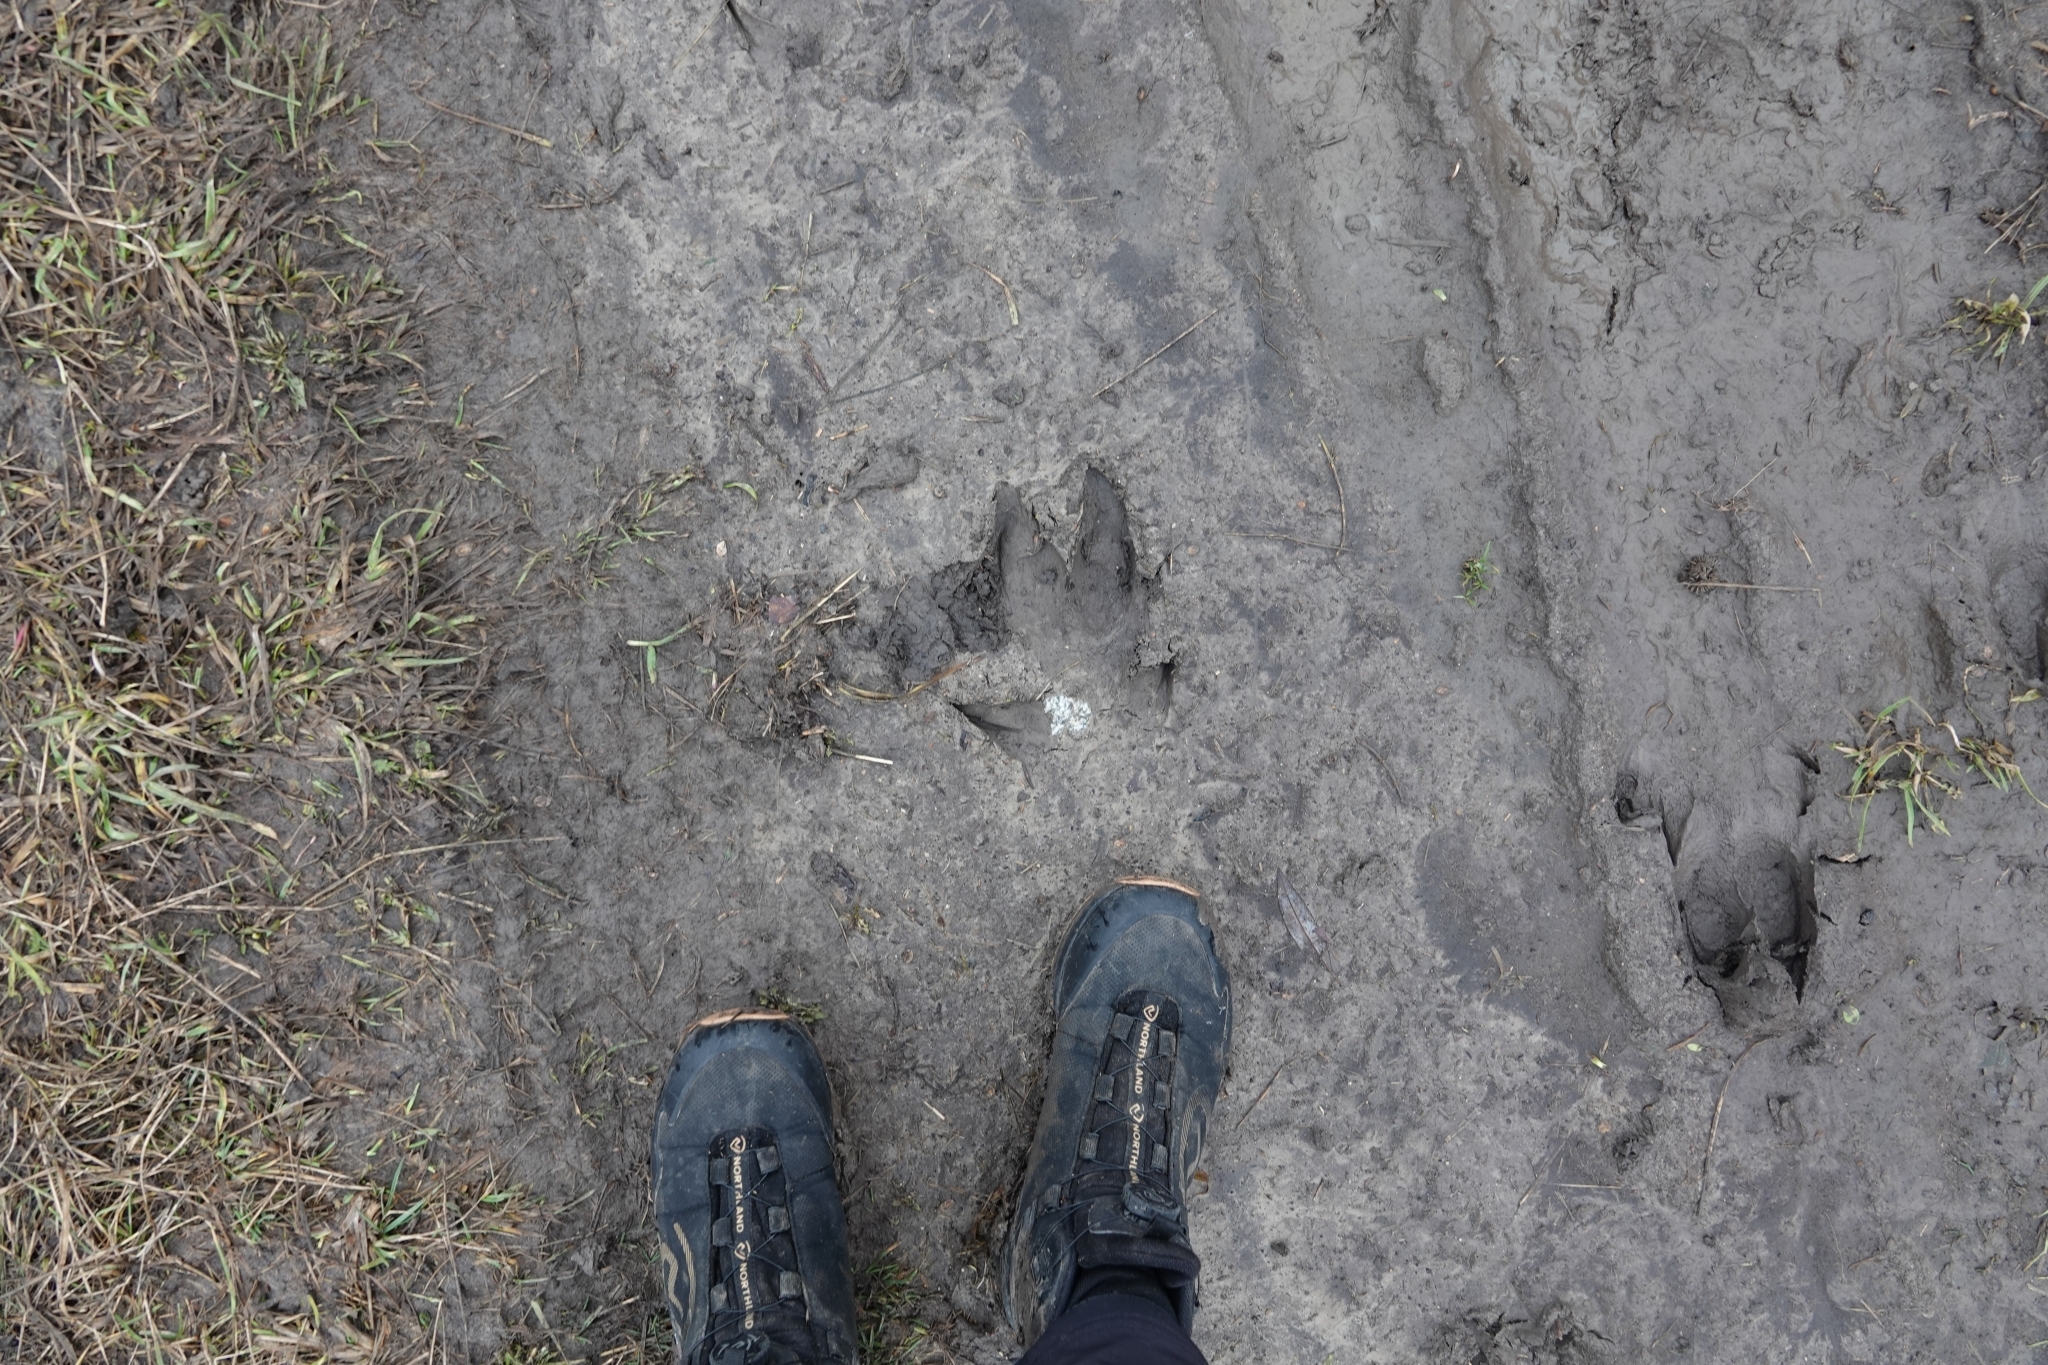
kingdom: Animalia
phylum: Chordata
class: Mammalia
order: Artiodactyla
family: Suidae
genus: Sus
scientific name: Sus scrofa
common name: Wild boar
